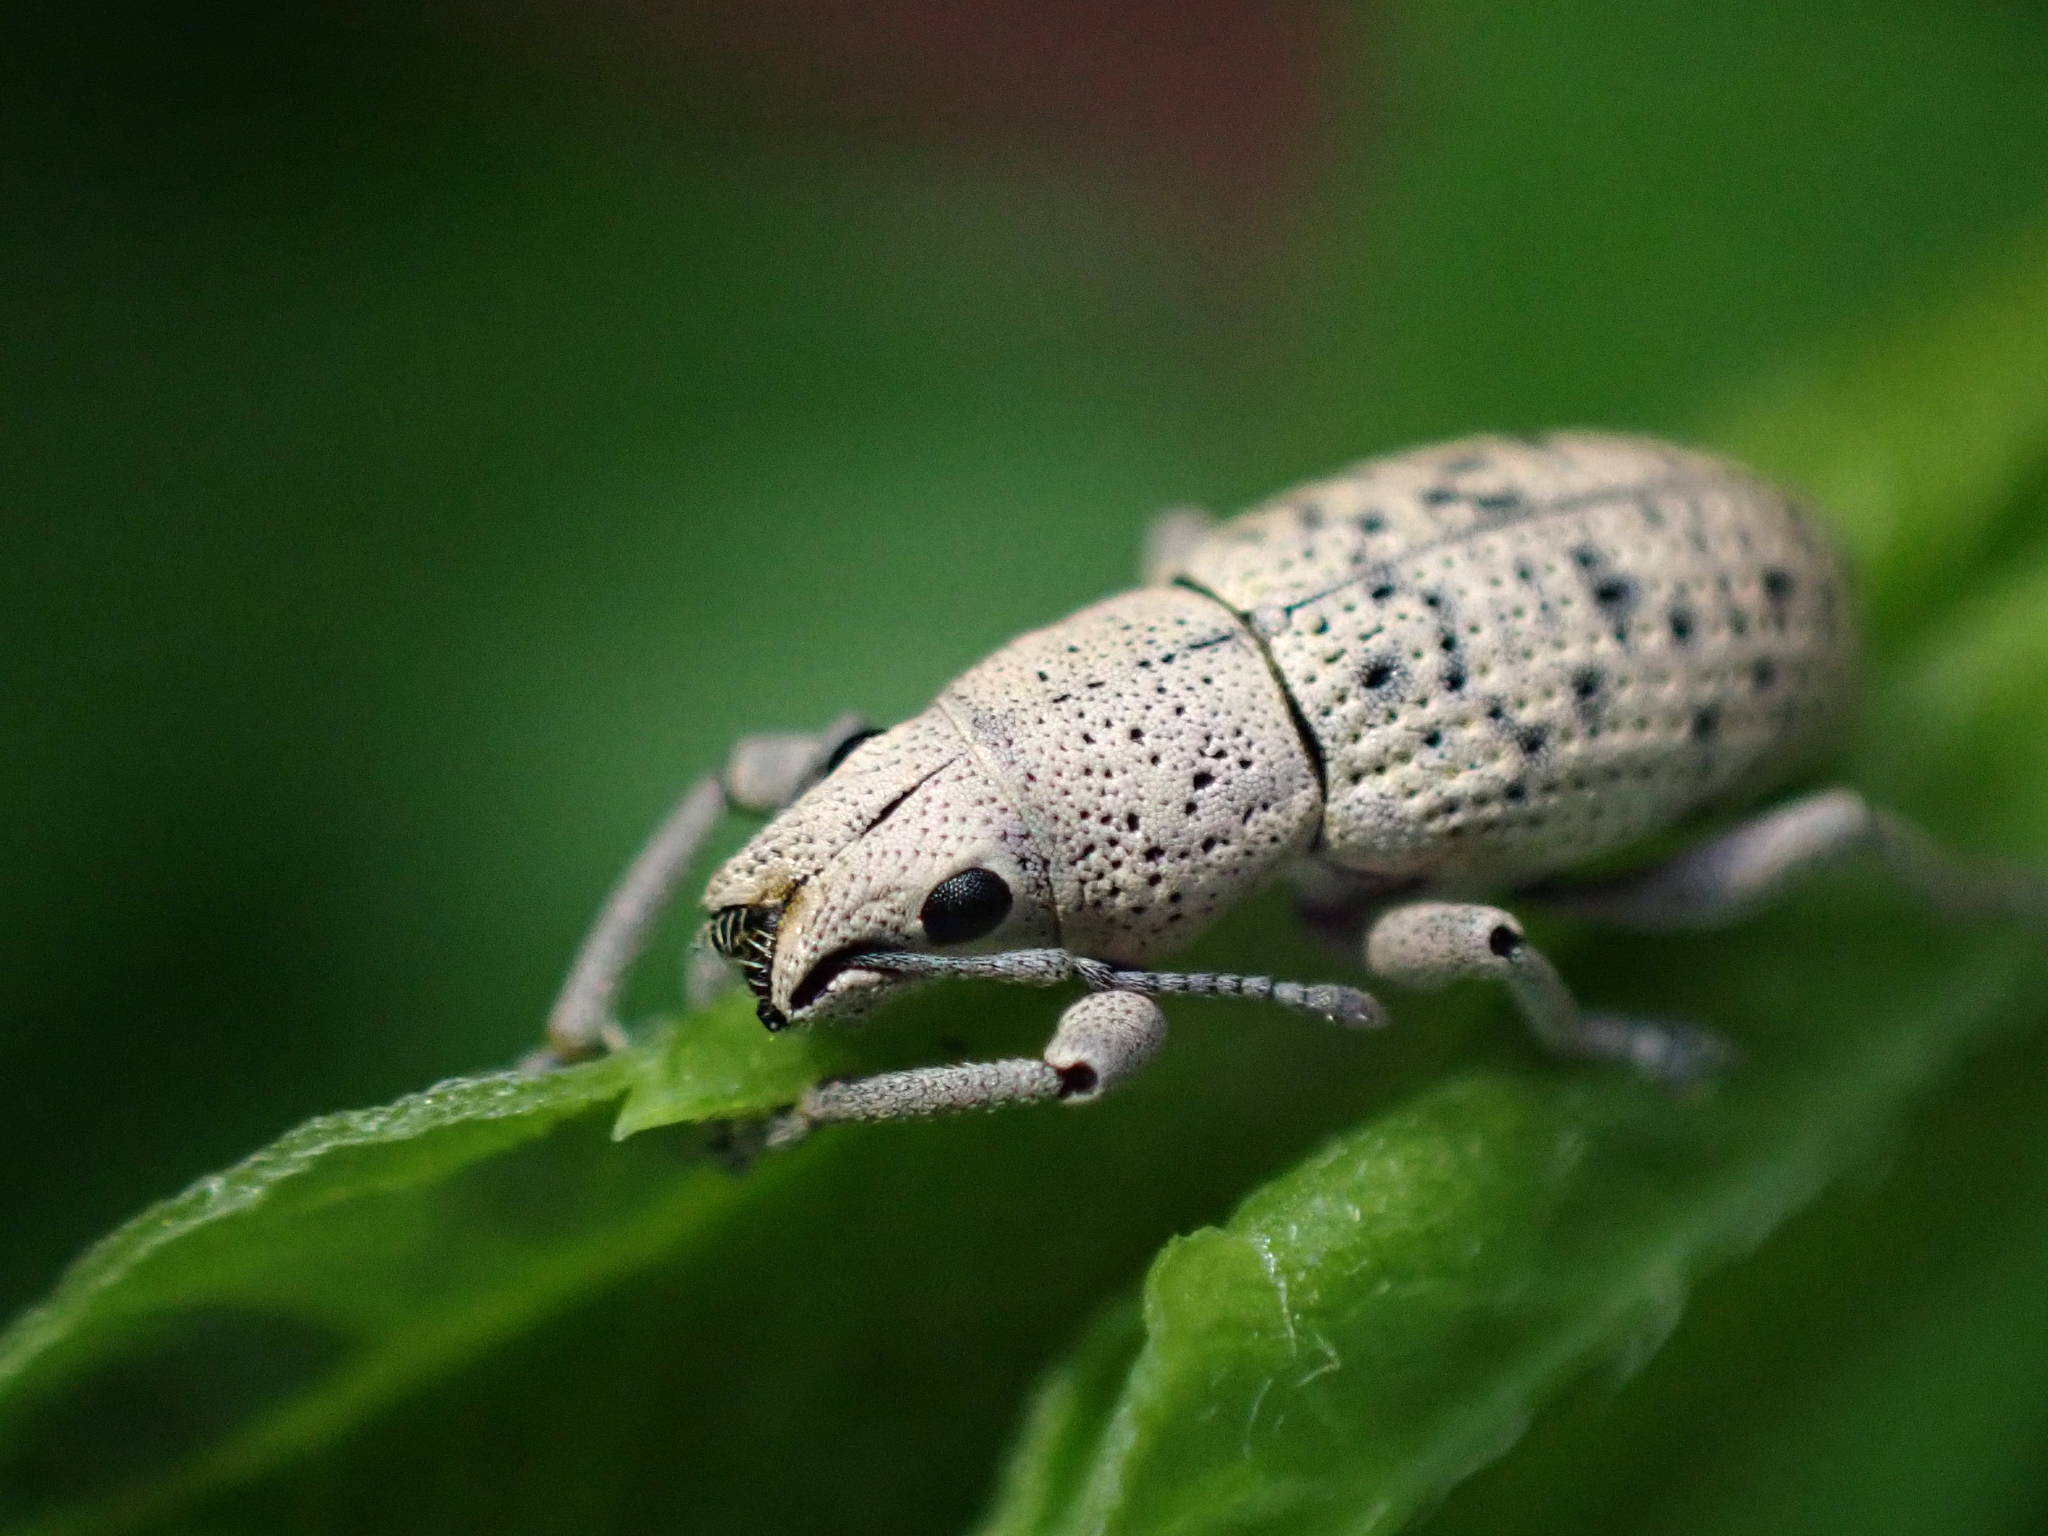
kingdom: Animalia
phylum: Arthropoda
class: Insecta
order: Coleoptera
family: Curculionidae
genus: Artipus
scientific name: Artipus floridanus
